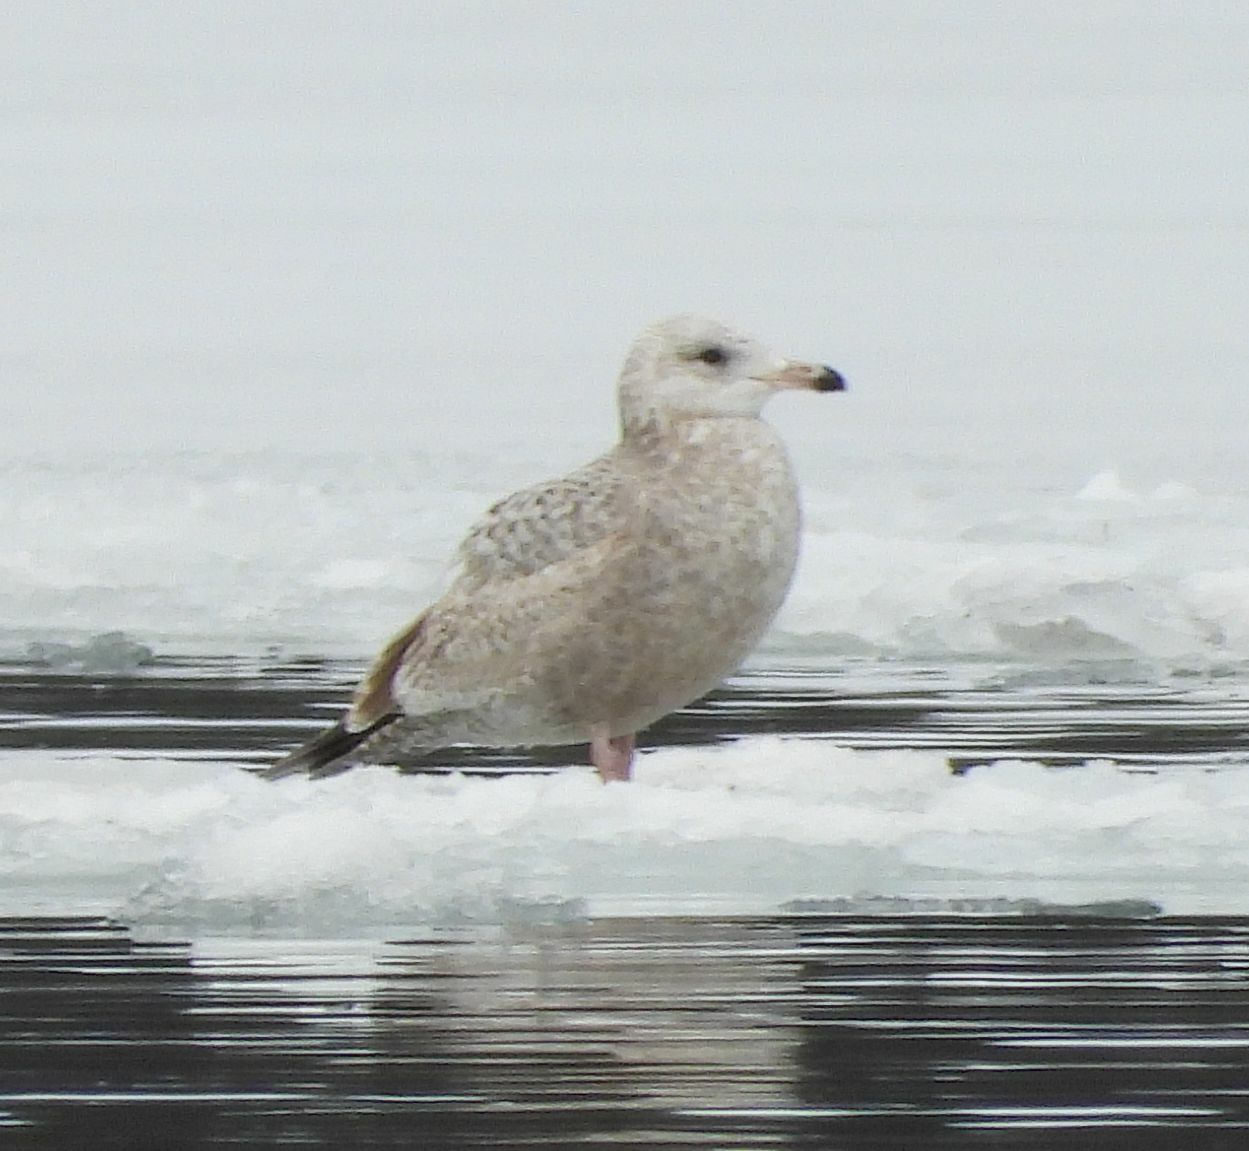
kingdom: Animalia
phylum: Chordata
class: Aves
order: Charadriiformes
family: Laridae
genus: Larus
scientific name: Larus argentatus
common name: Herring gull
